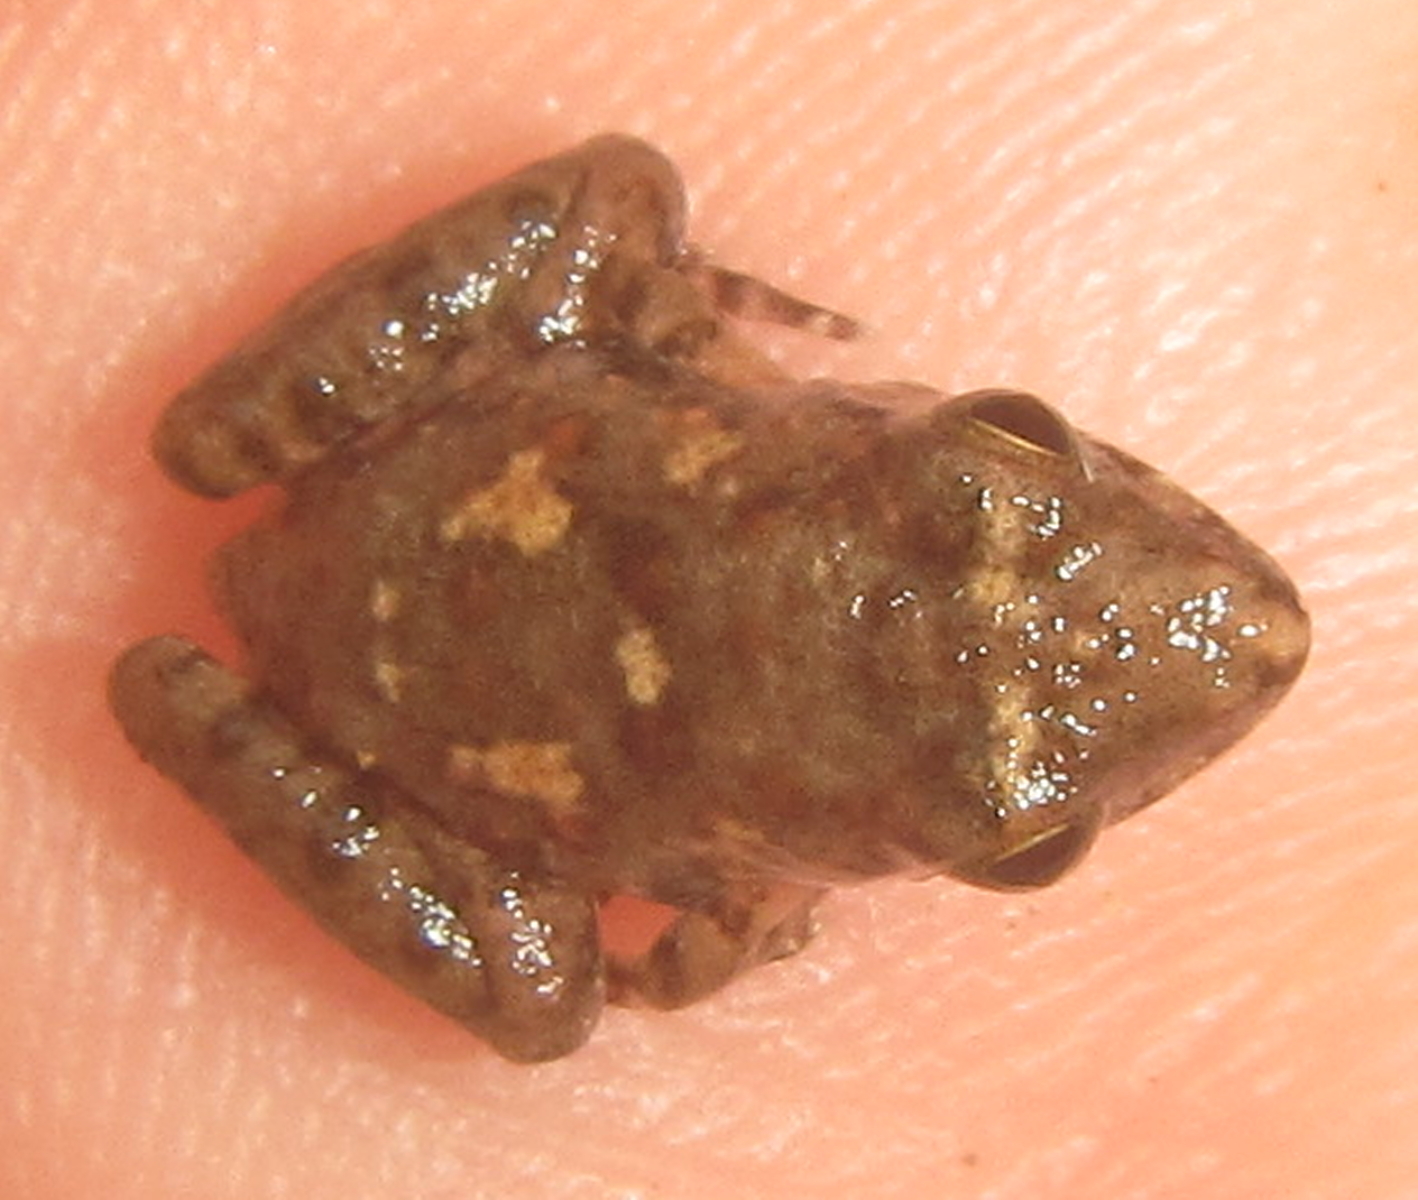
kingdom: Animalia
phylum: Chordata
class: Amphibia
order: Anura
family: Phrynobatrachidae
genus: Phrynobatrachus
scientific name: Phrynobatrachus mababiensis
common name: Dwarf puddle frog
